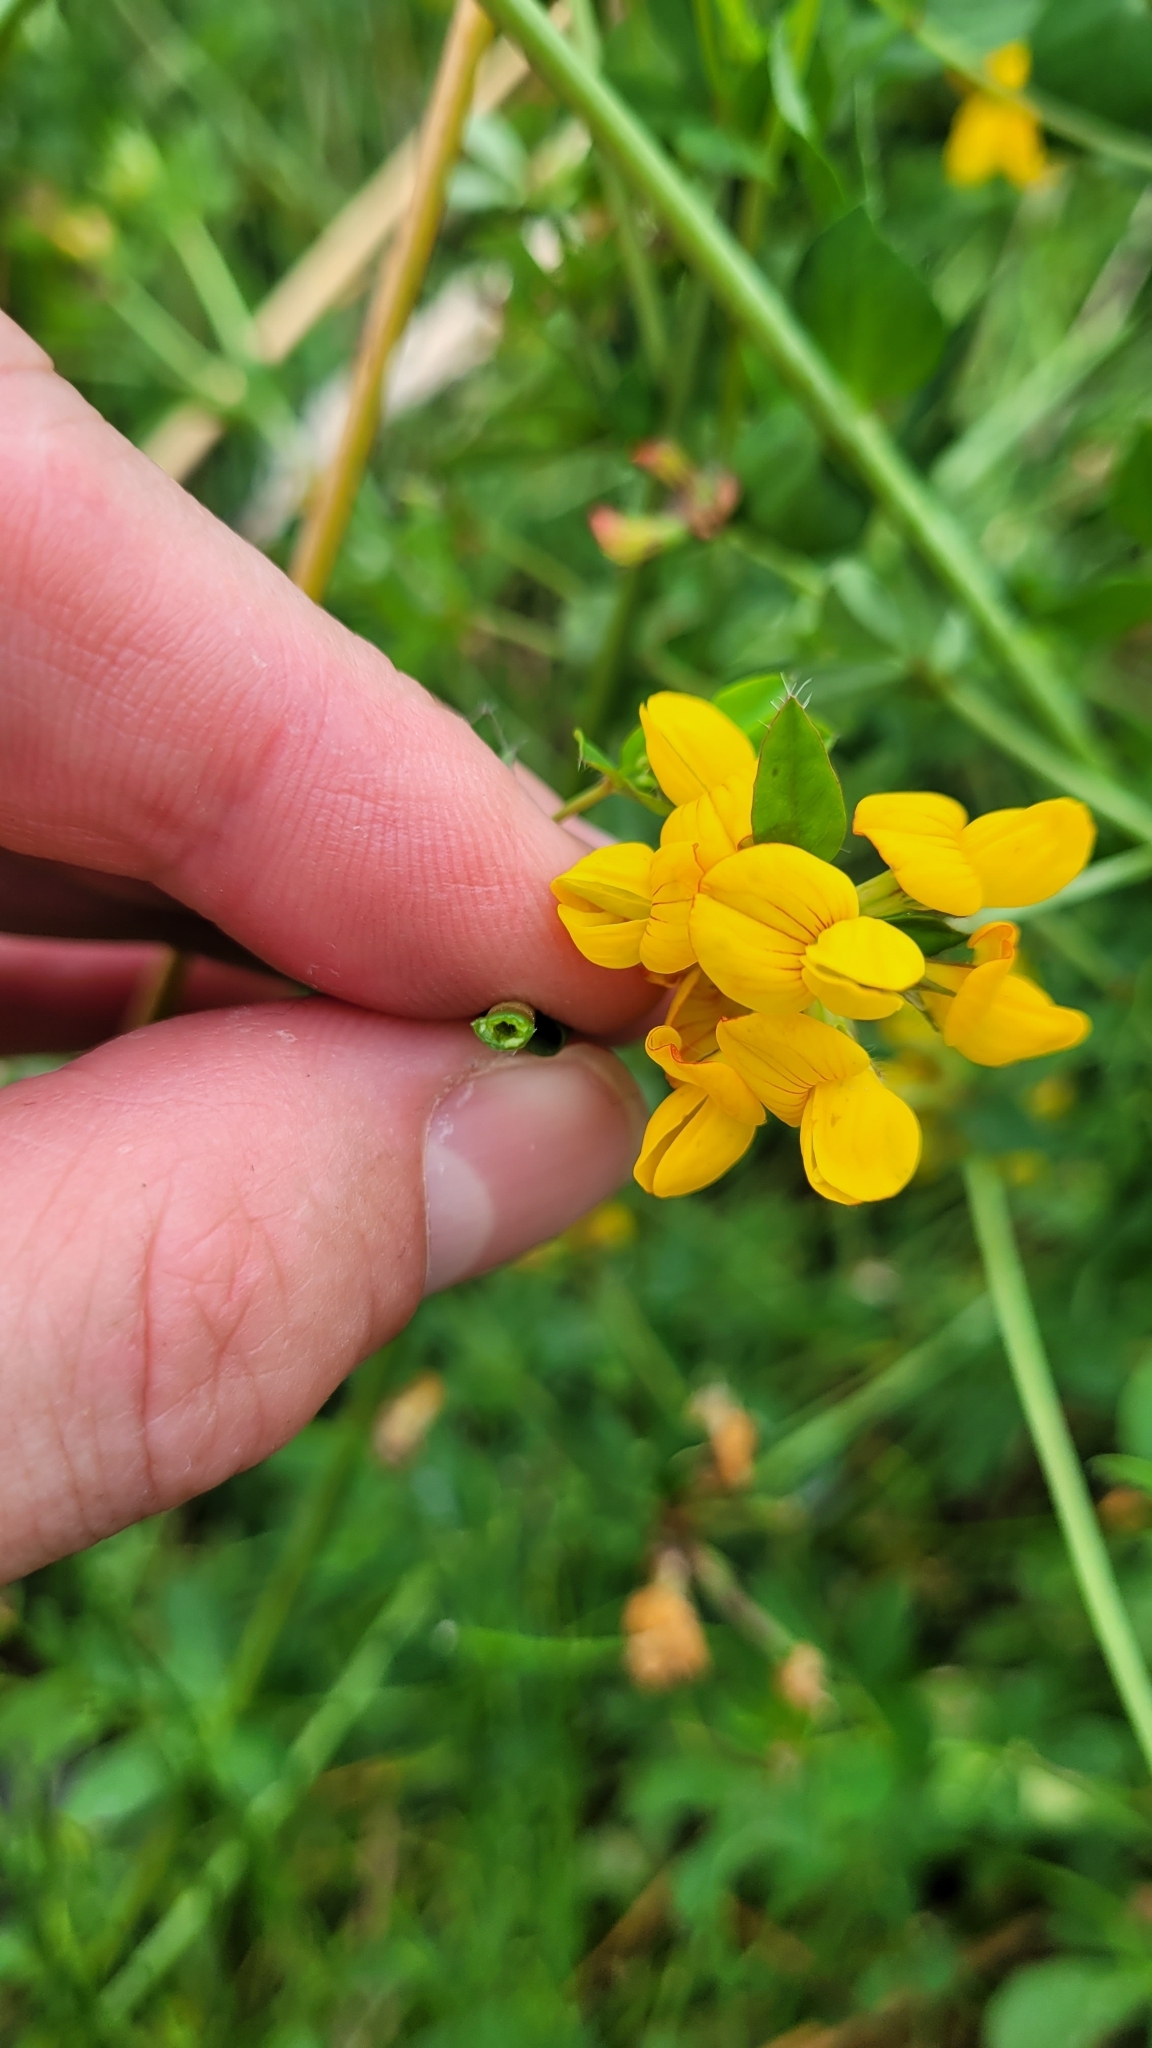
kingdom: Plantae
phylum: Tracheophyta
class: Magnoliopsida
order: Fabales
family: Fabaceae
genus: Lotus
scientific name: Lotus pedunculatus
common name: Greater birdsfoot-trefoil
